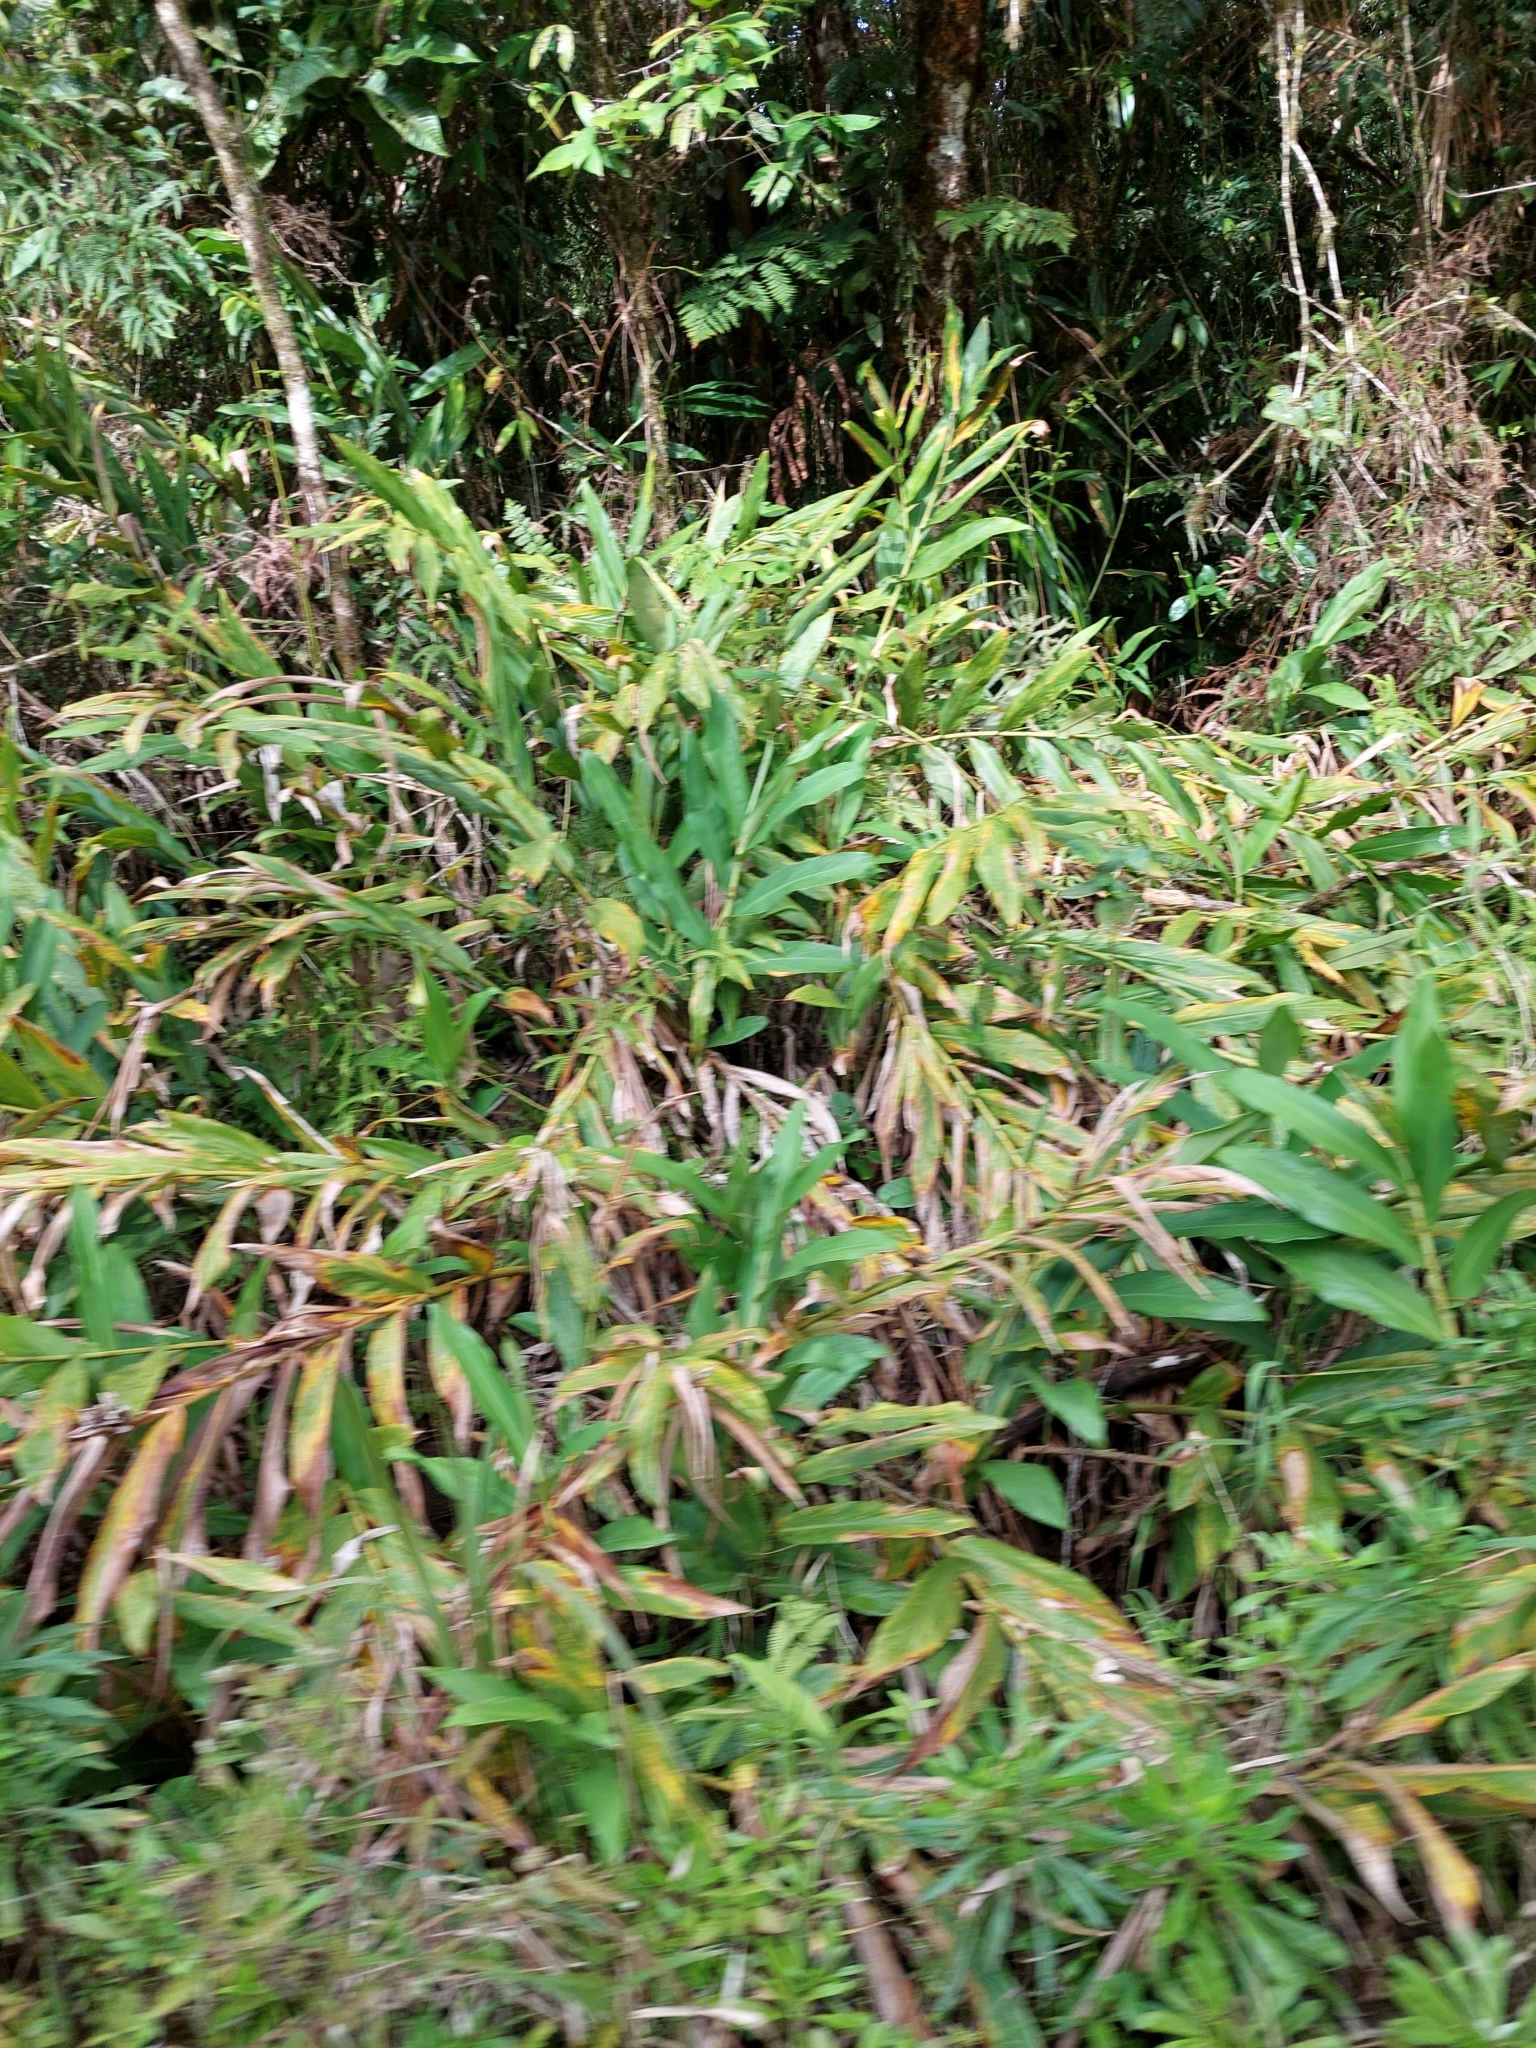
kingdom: Plantae
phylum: Tracheophyta
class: Liliopsida
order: Zingiberales
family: Zingiberaceae
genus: Hedychium
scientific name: Hedychium coronarium
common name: White garland-lily
